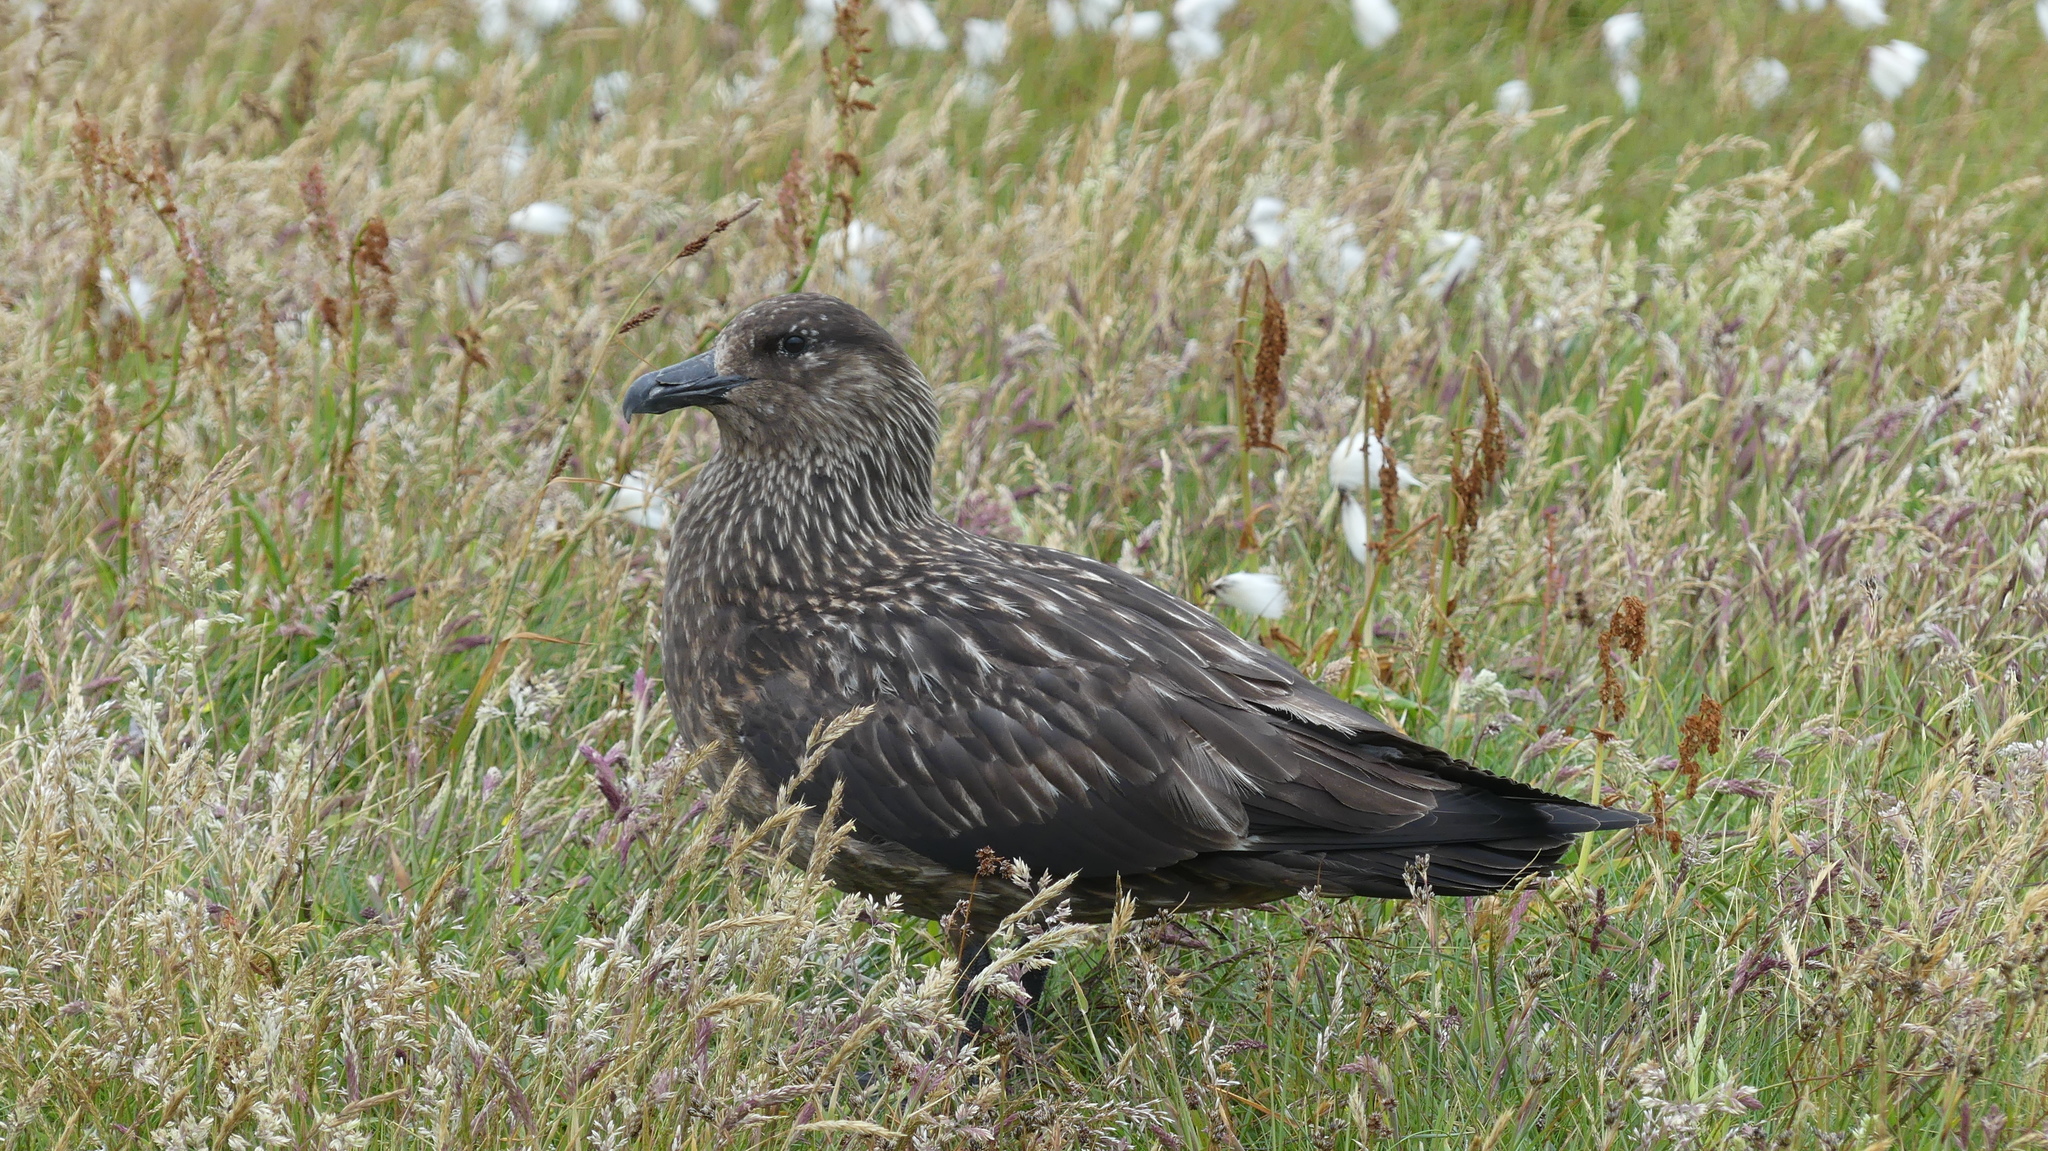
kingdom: Animalia
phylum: Chordata
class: Aves
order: Charadriiformes
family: Stercorariidae
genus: Stercorarius
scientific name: Stercorarius skua
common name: Great skua
